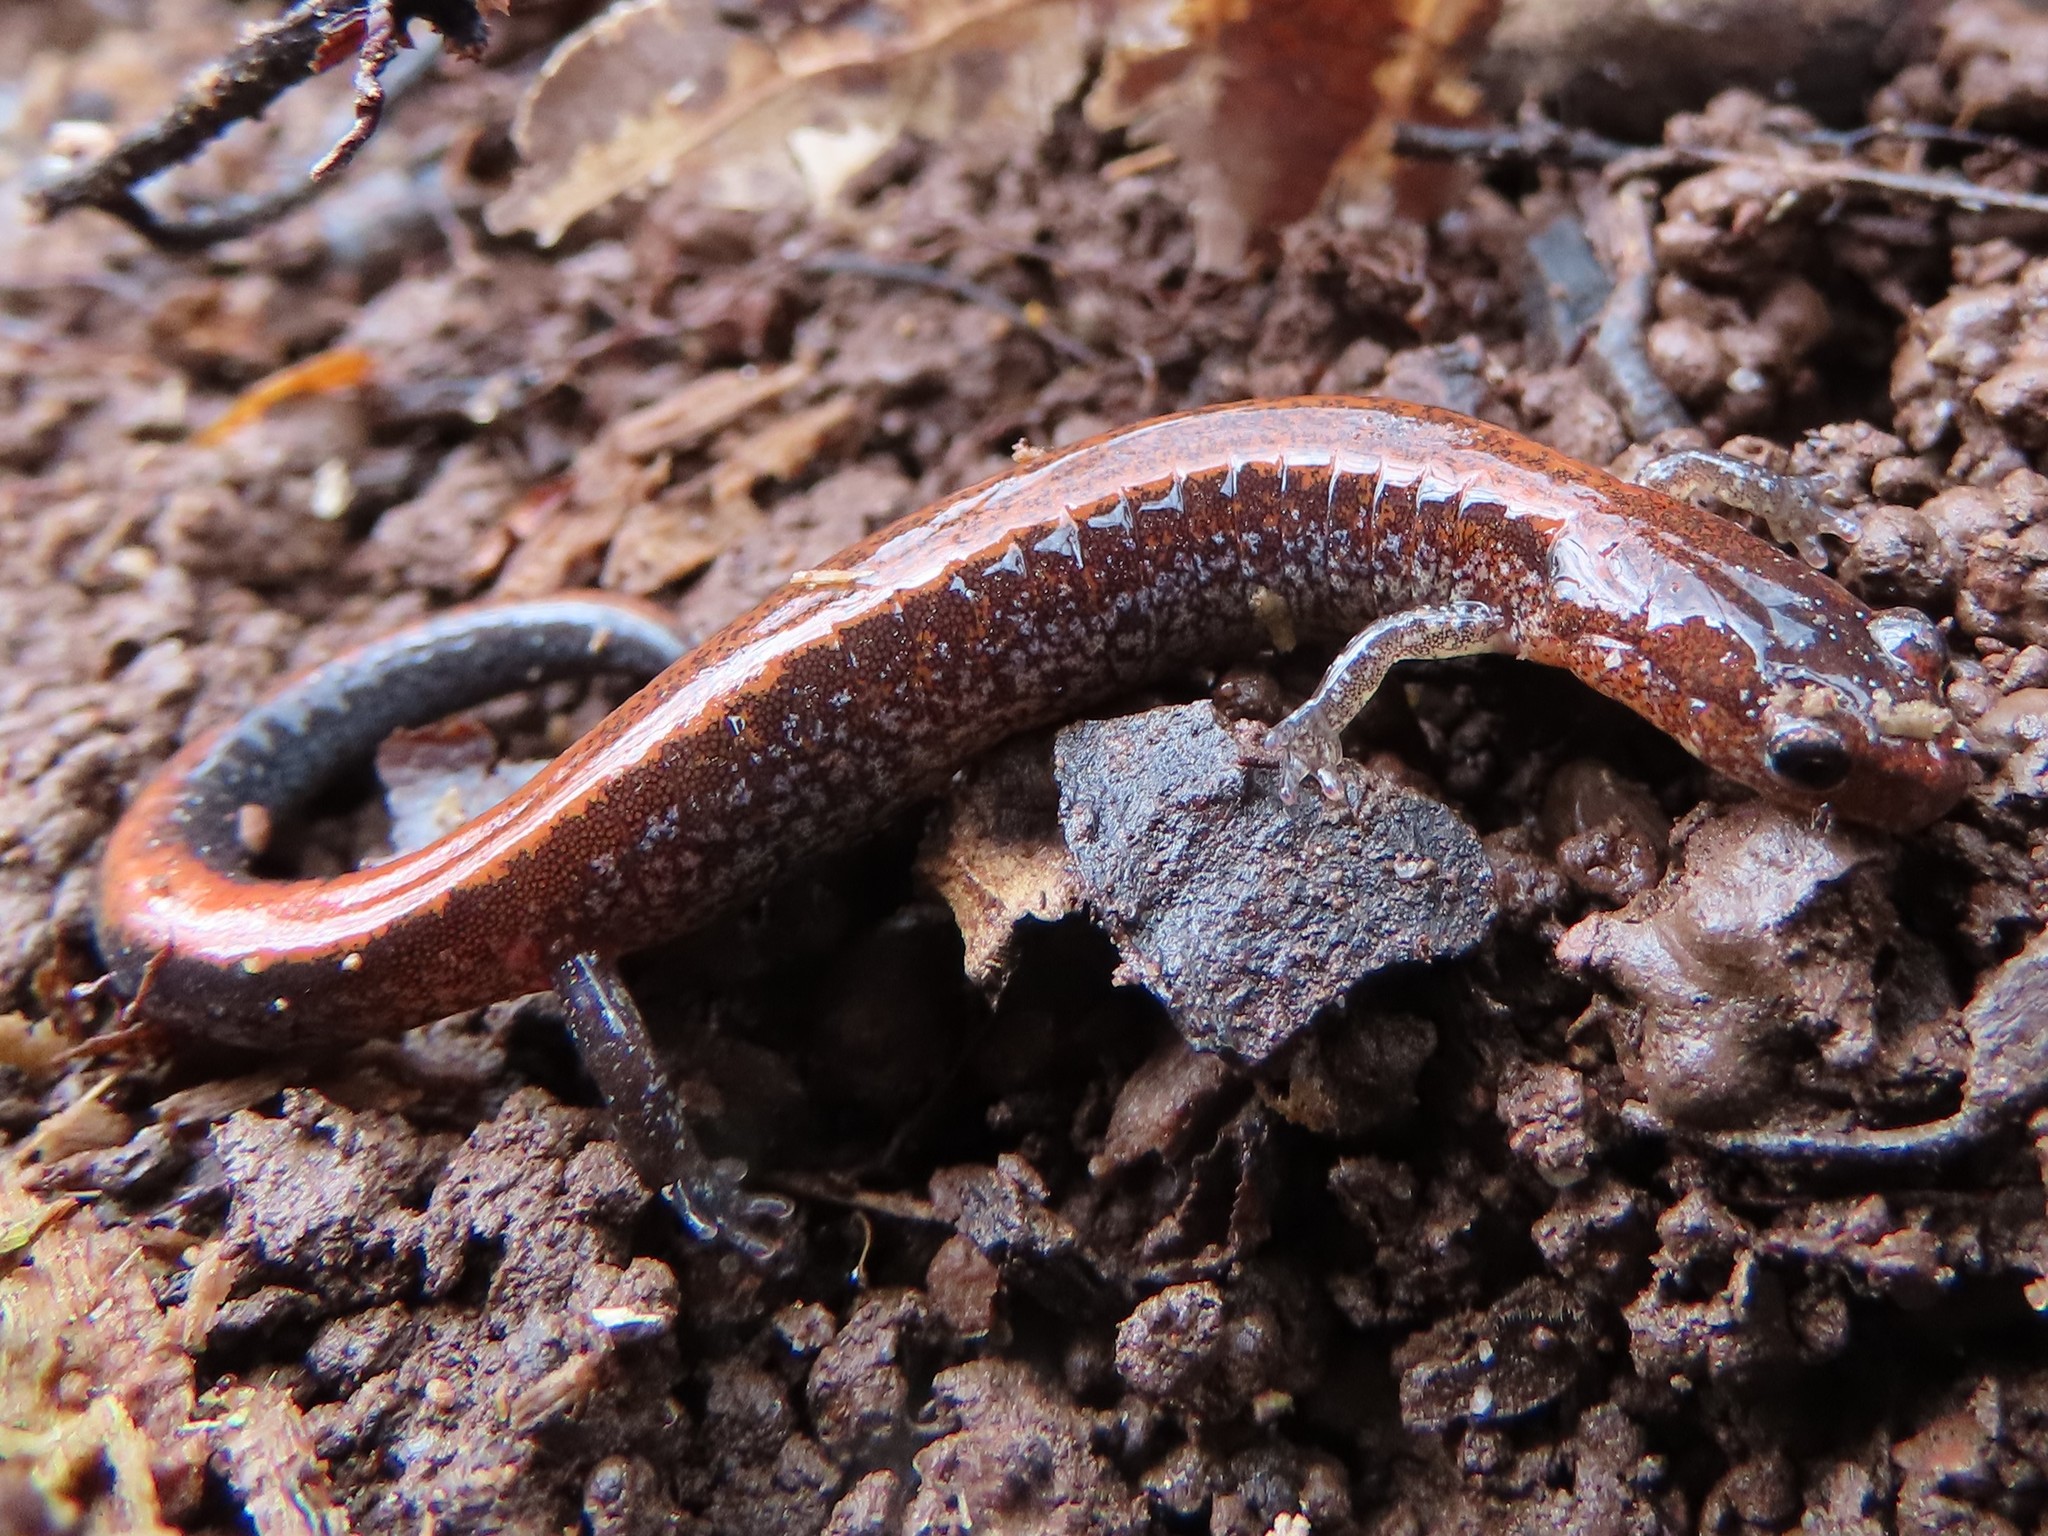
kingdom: Animalia
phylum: Chordata
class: Amphibia
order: Caudata
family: Plethodontidae
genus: Plethodon
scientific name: Plethodon cinereus
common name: Redback salamander
